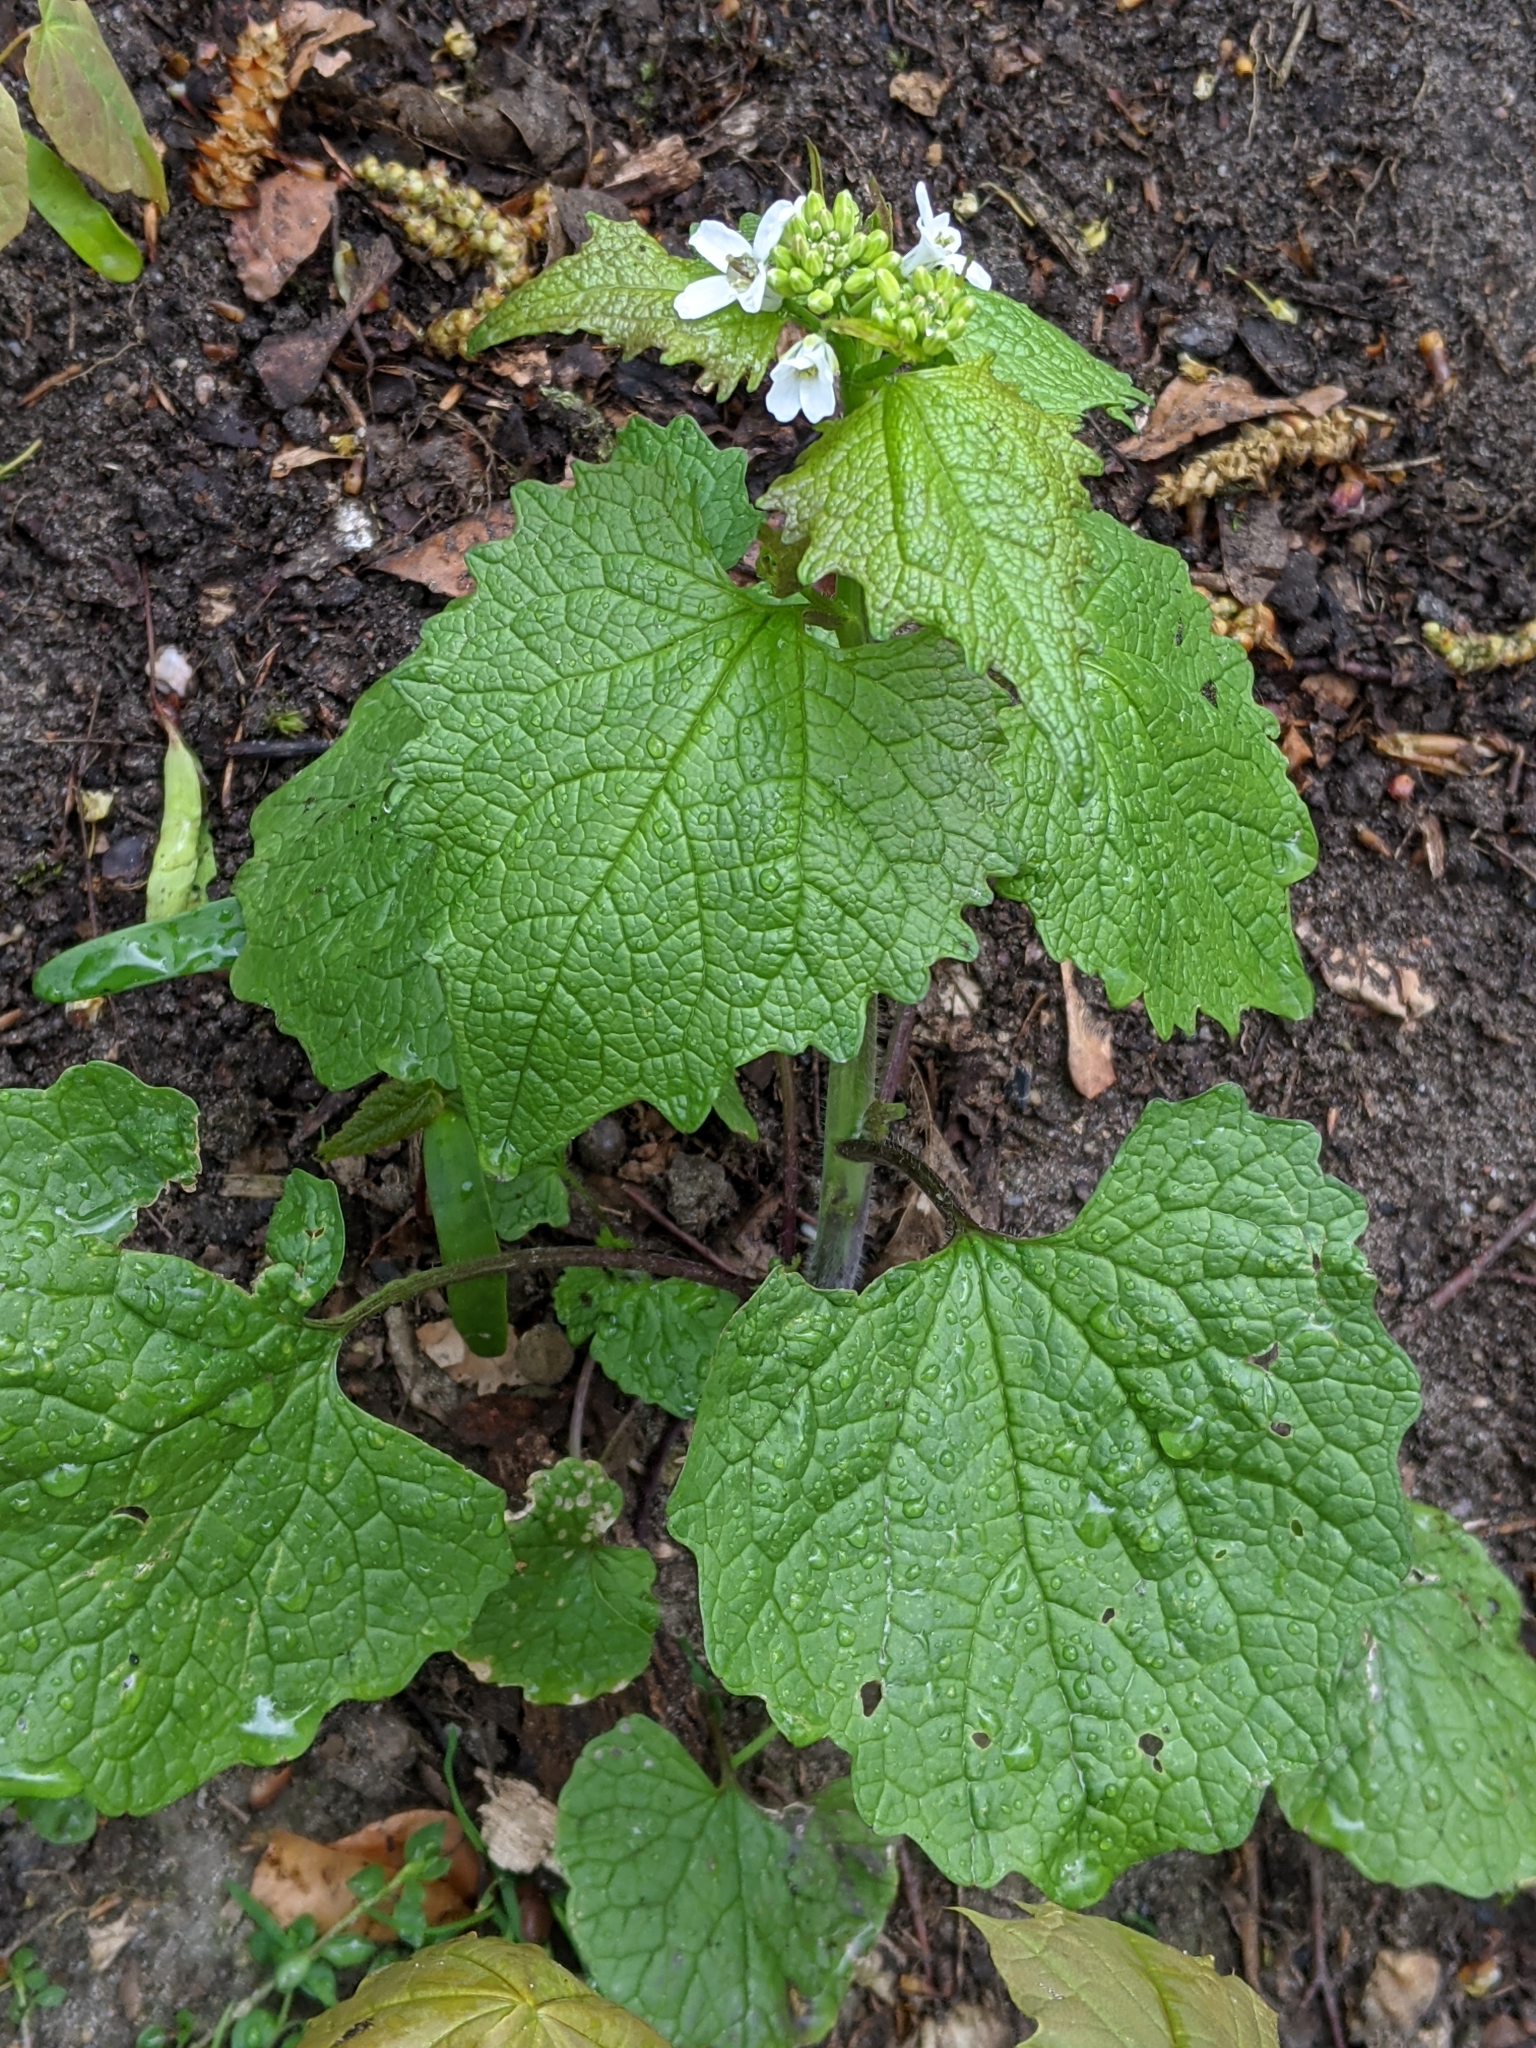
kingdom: Plantae
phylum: Tracheophyta
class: Magnoliopsida
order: Brassicales
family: Brassicaceae
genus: Alliaria
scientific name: Alliaria petiolata
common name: Garlic mustard
